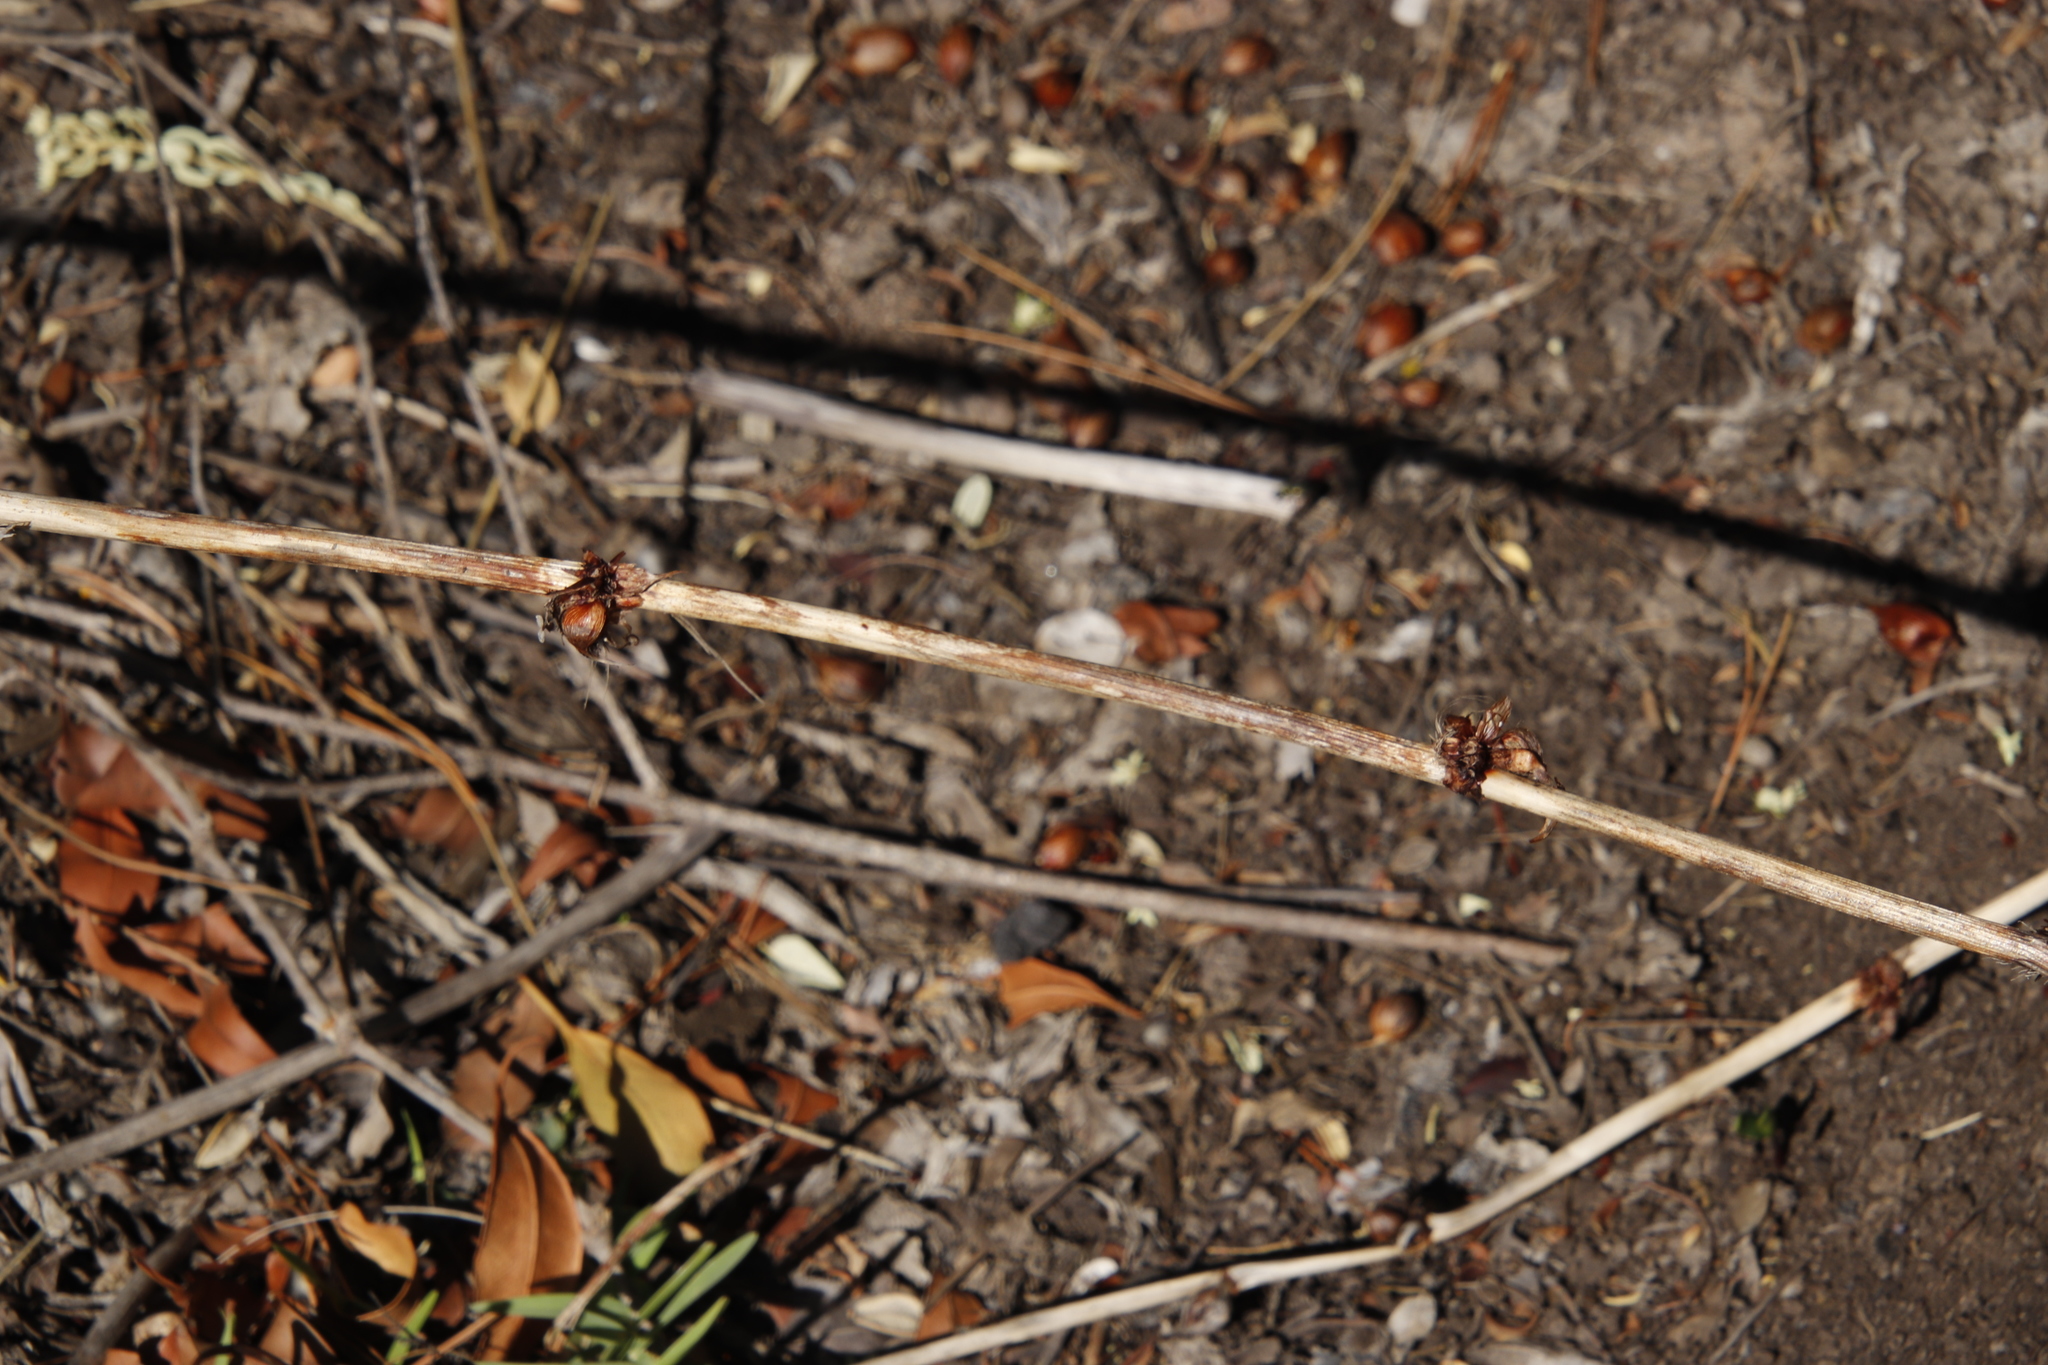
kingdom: Plantae
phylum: Tracheophyta
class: Liliopsida
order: Asparagales
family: Iridaceae
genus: Watsonia
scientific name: Watsonia meriana
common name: Bulbil bugle-lily
